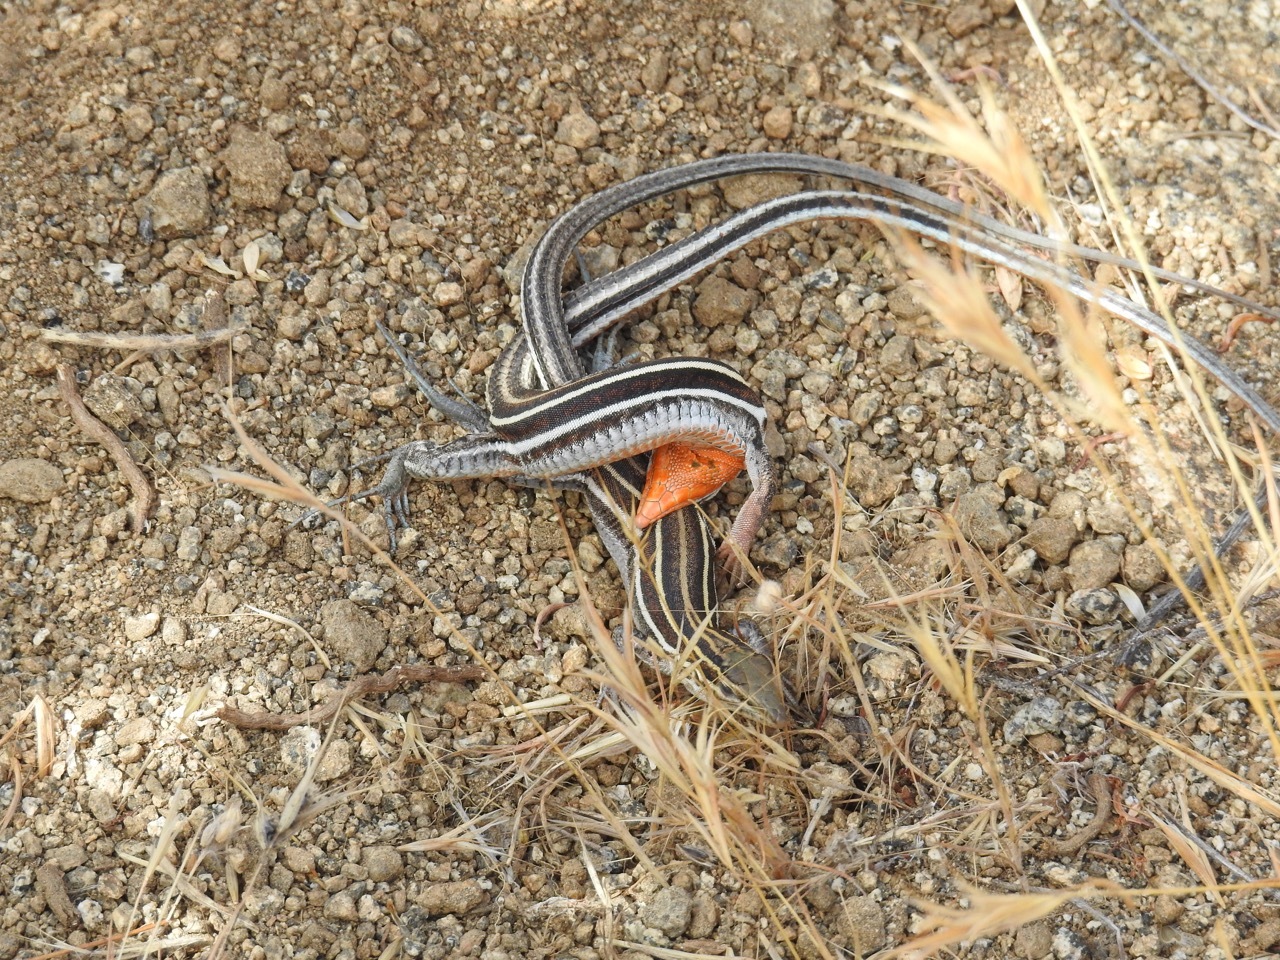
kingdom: Animalia
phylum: Chordata
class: Squamata
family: Teiidae
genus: Aspidoscelis
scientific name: Aspidoscelis hyperythrus
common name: Orange-throated race-runner
